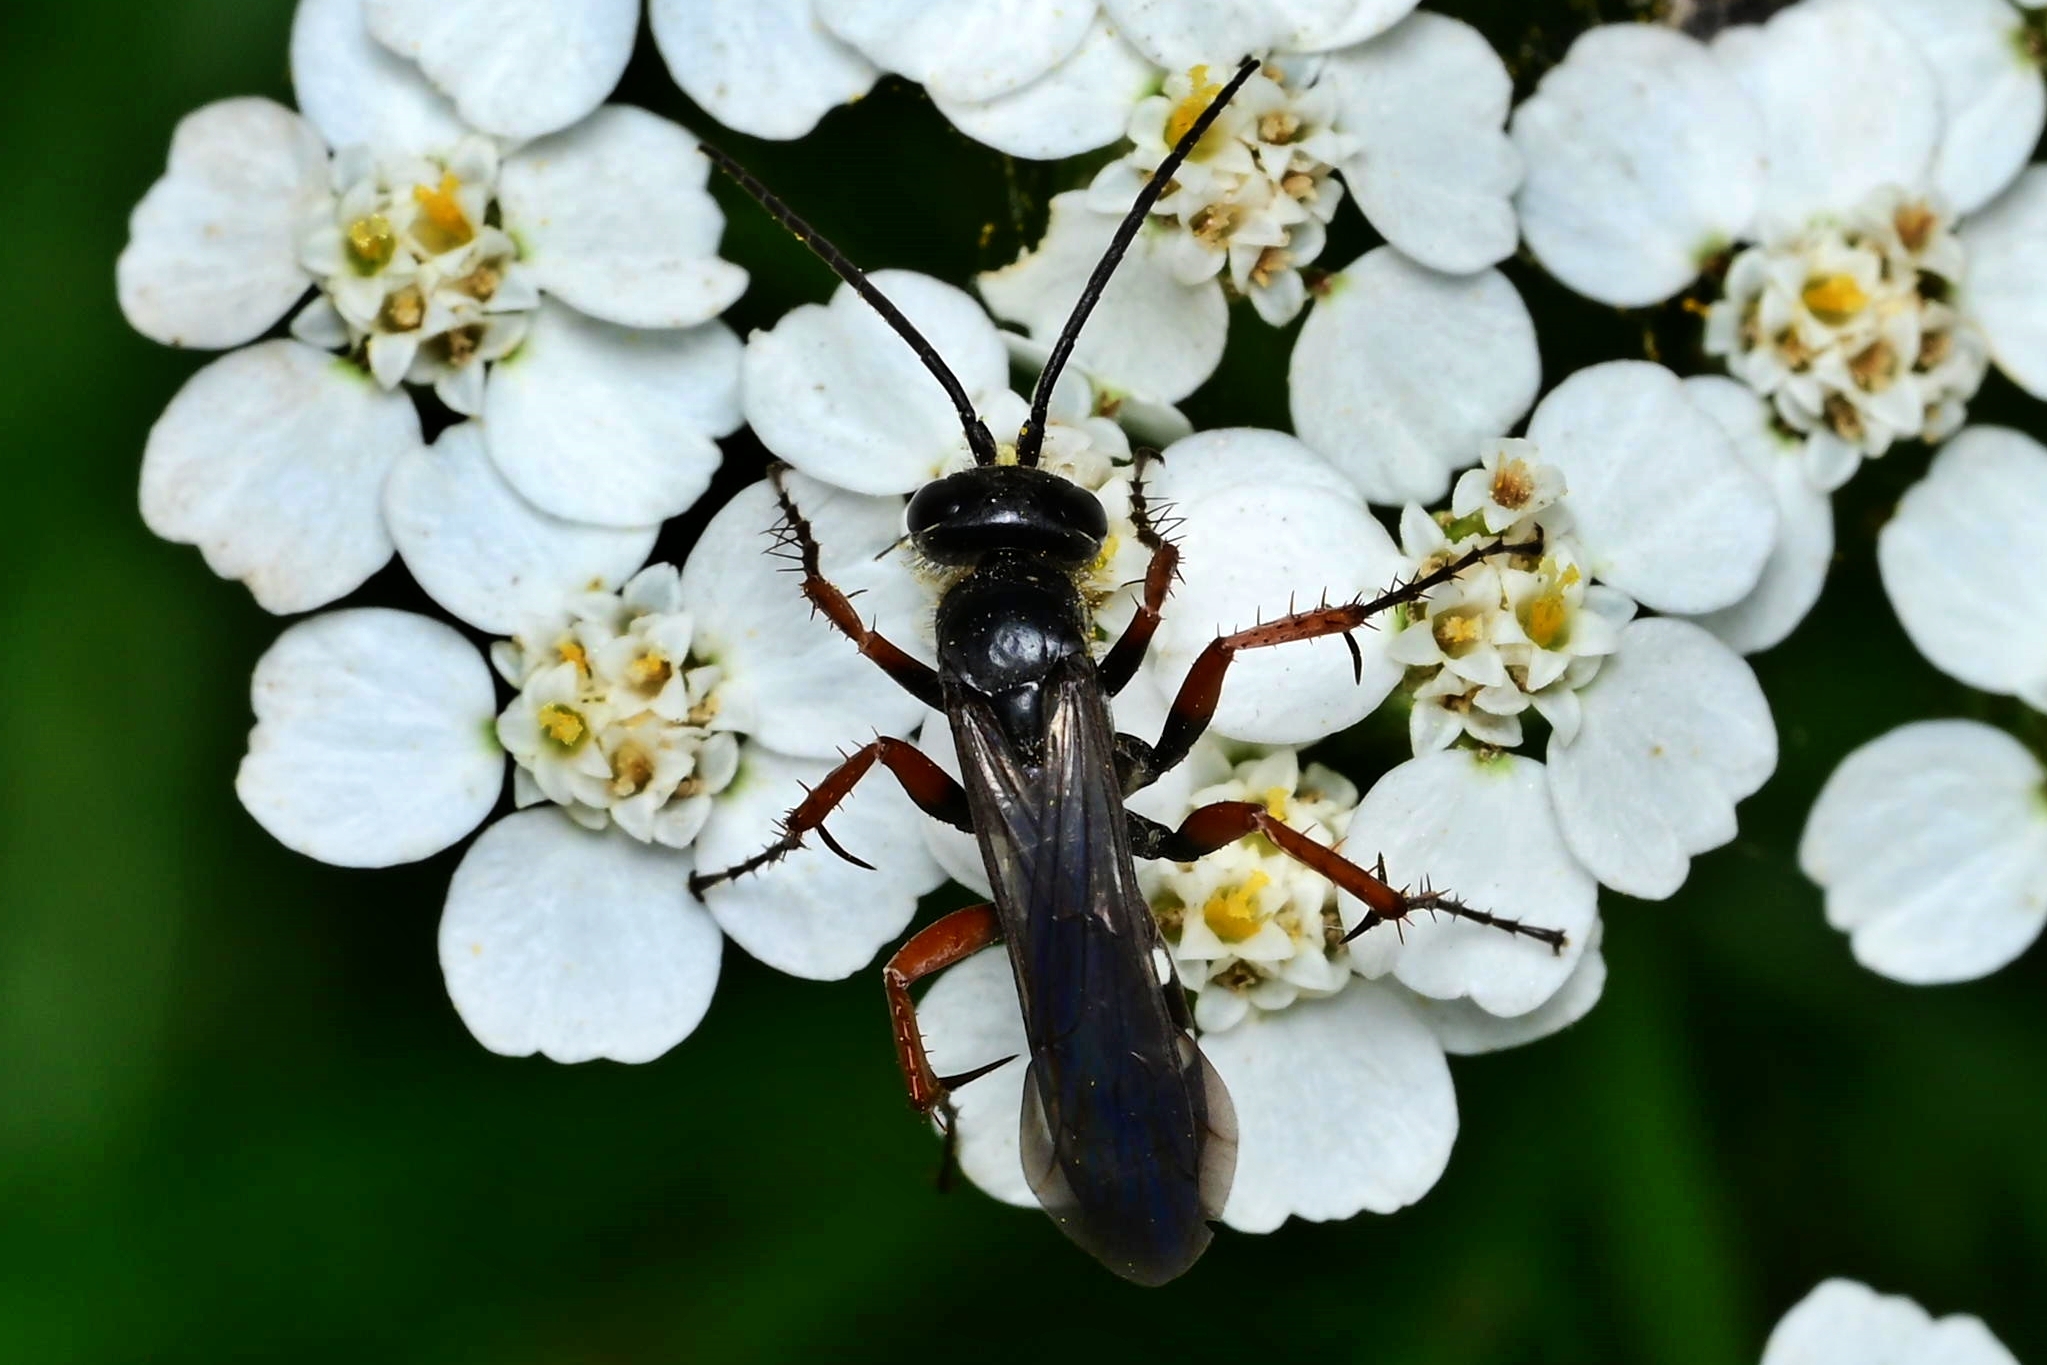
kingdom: Animalia
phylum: Arthropoda
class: Insecta
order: Hymenoptera
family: Pompilidae
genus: Episyron
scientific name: Episyron albonotatum
